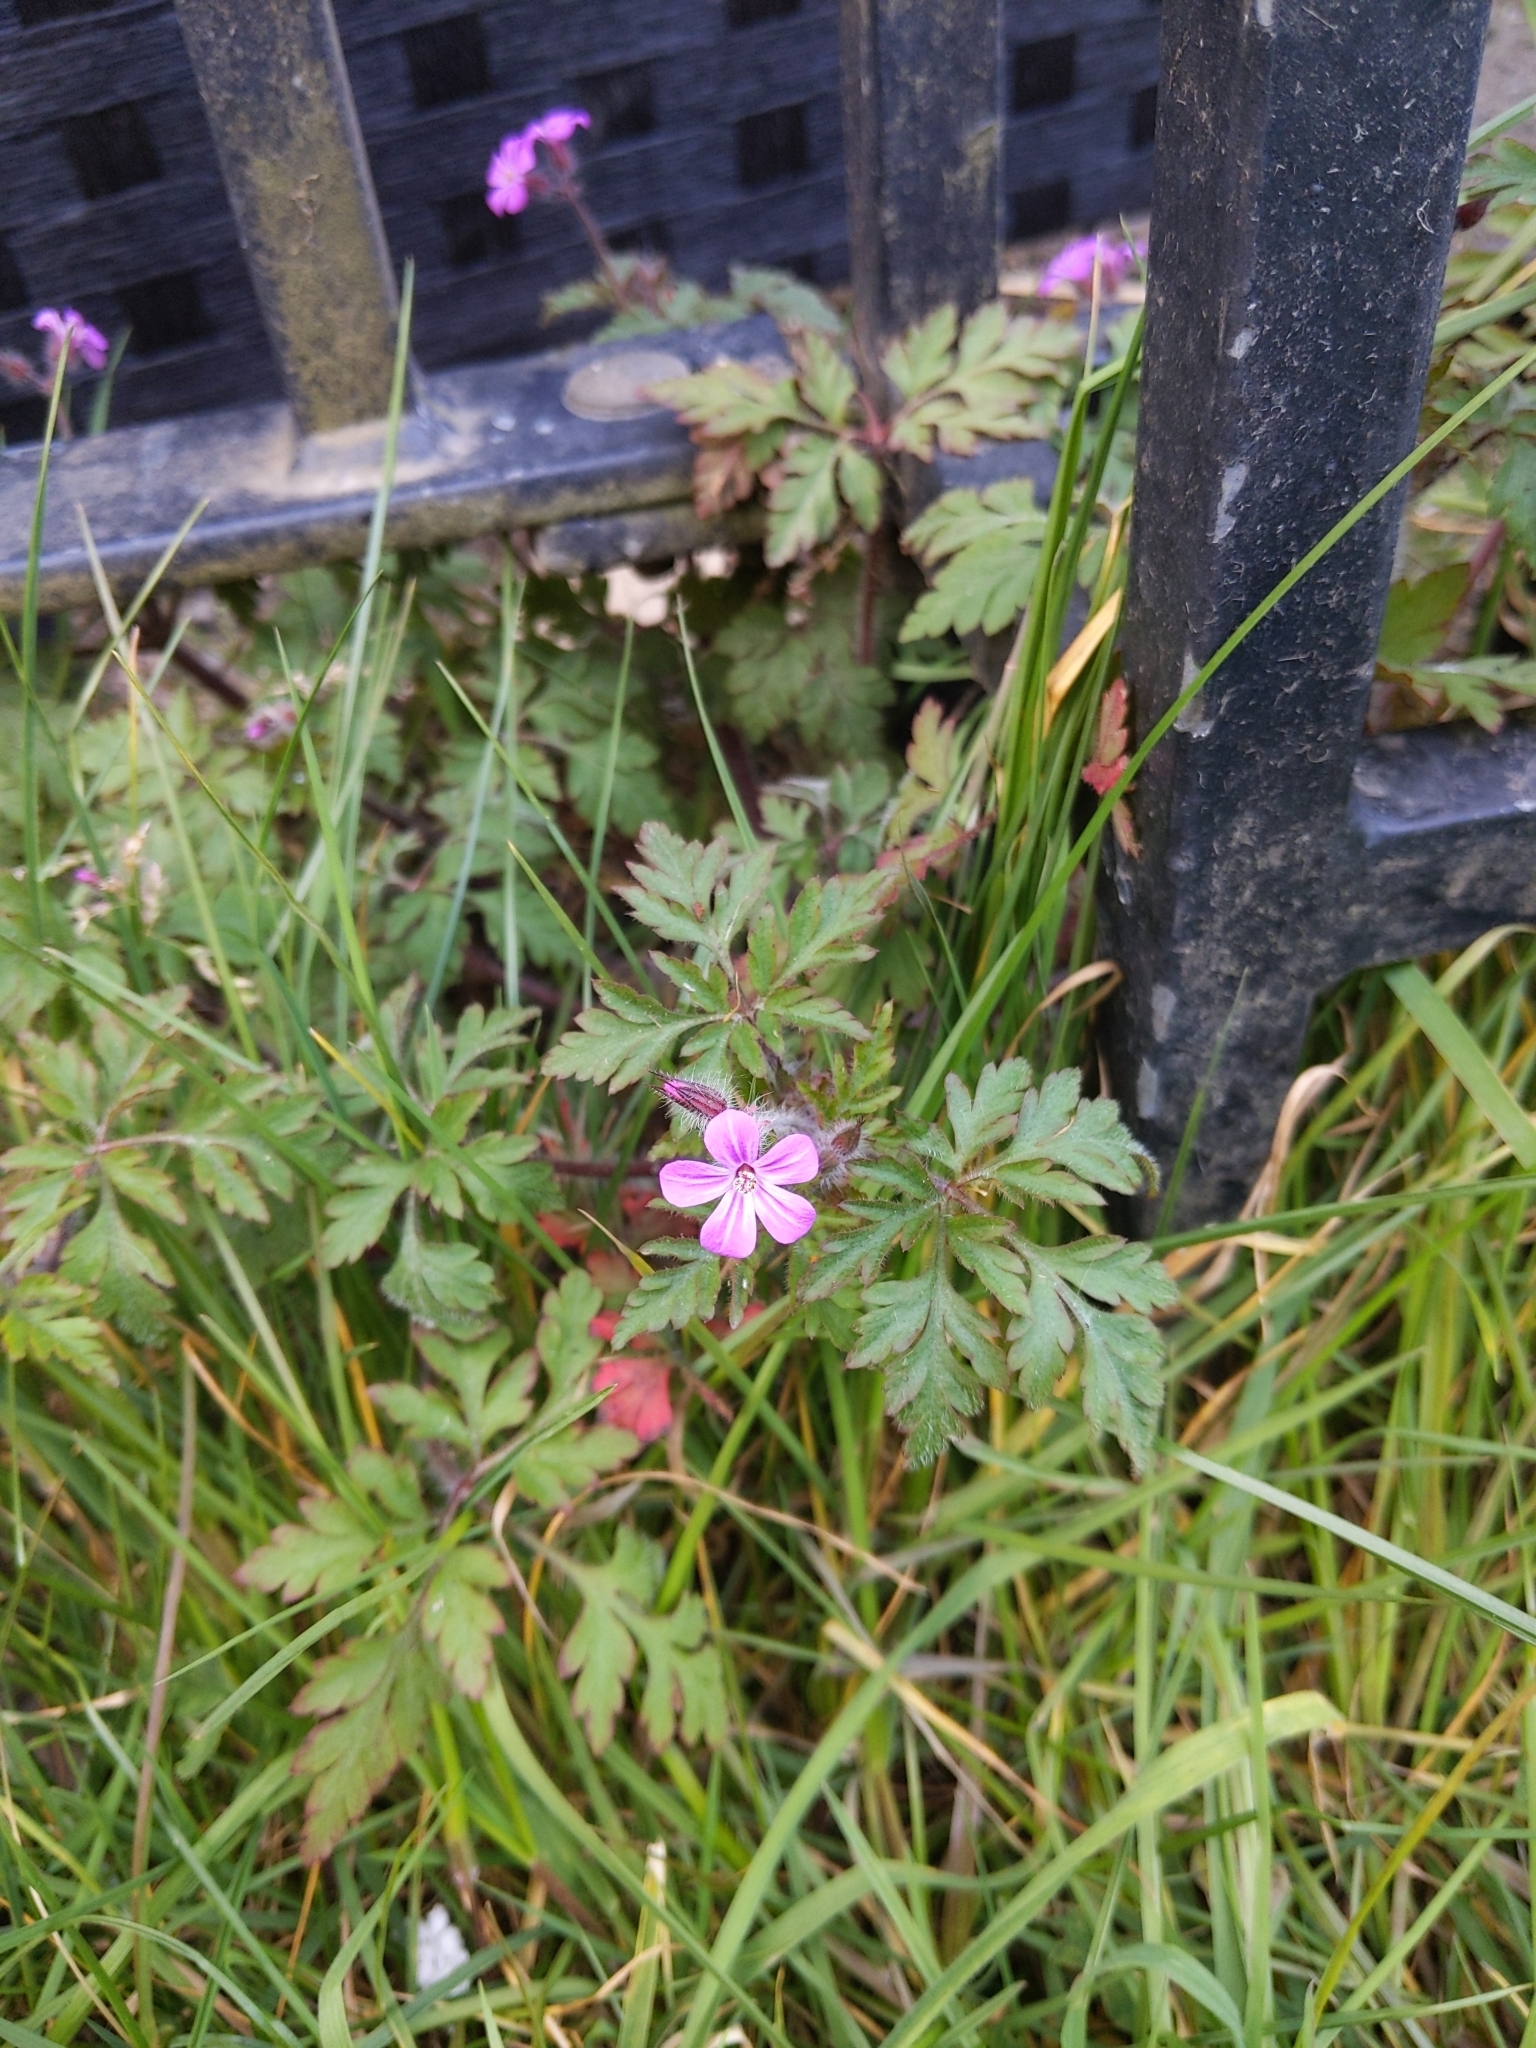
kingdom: Plantae
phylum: Tracheophyta
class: Magnoliopsida
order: Geraniales
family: Geraniaceae
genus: Geranium
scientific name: Geranium robertianum
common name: Herb-robert
